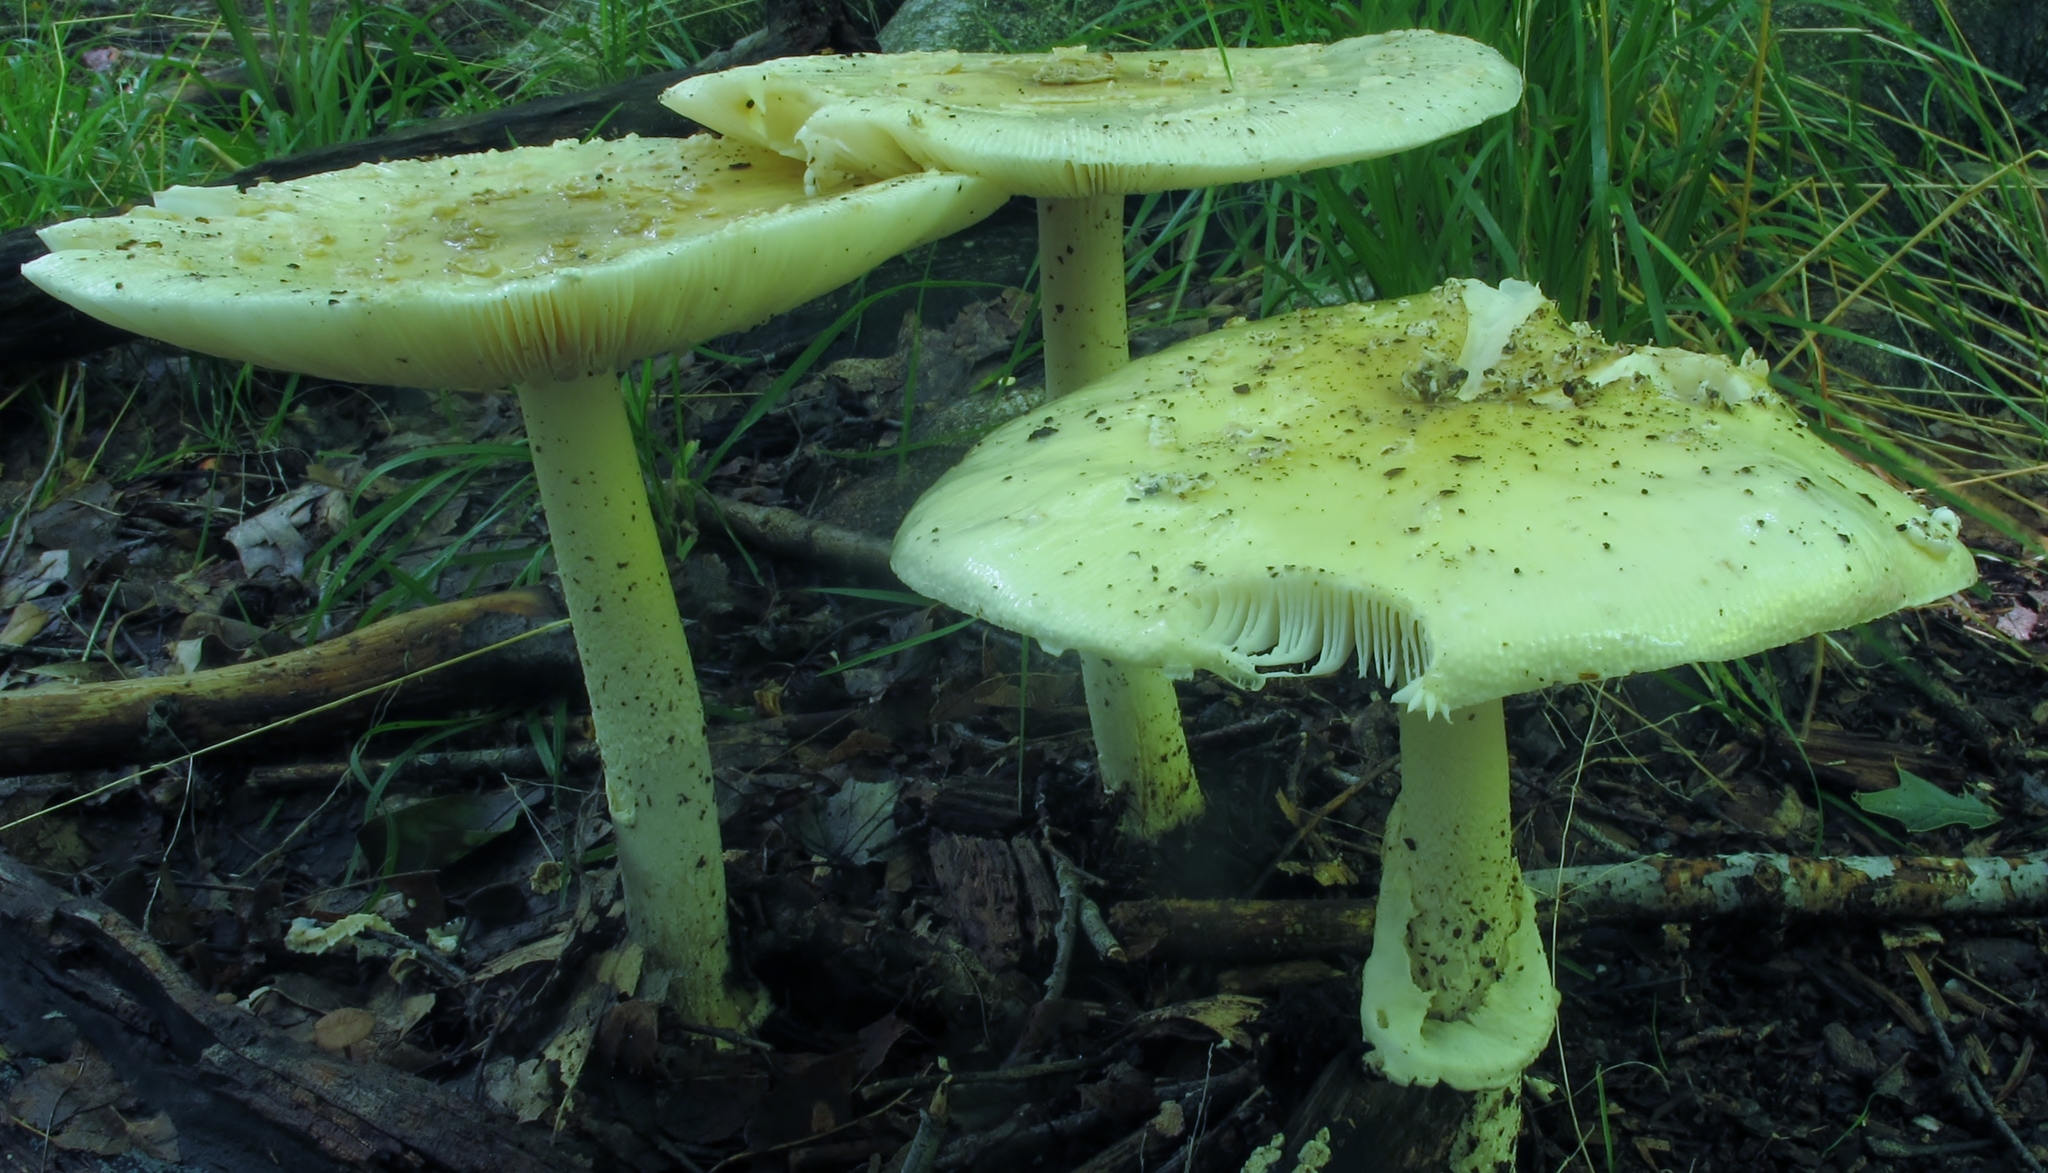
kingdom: Fungi
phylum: Basidiomycota
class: Agaricomycetes
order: Agaricales
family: Amanitaceae
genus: Amanita
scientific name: Amanita velatipes
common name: Great funnel-veil amanita
